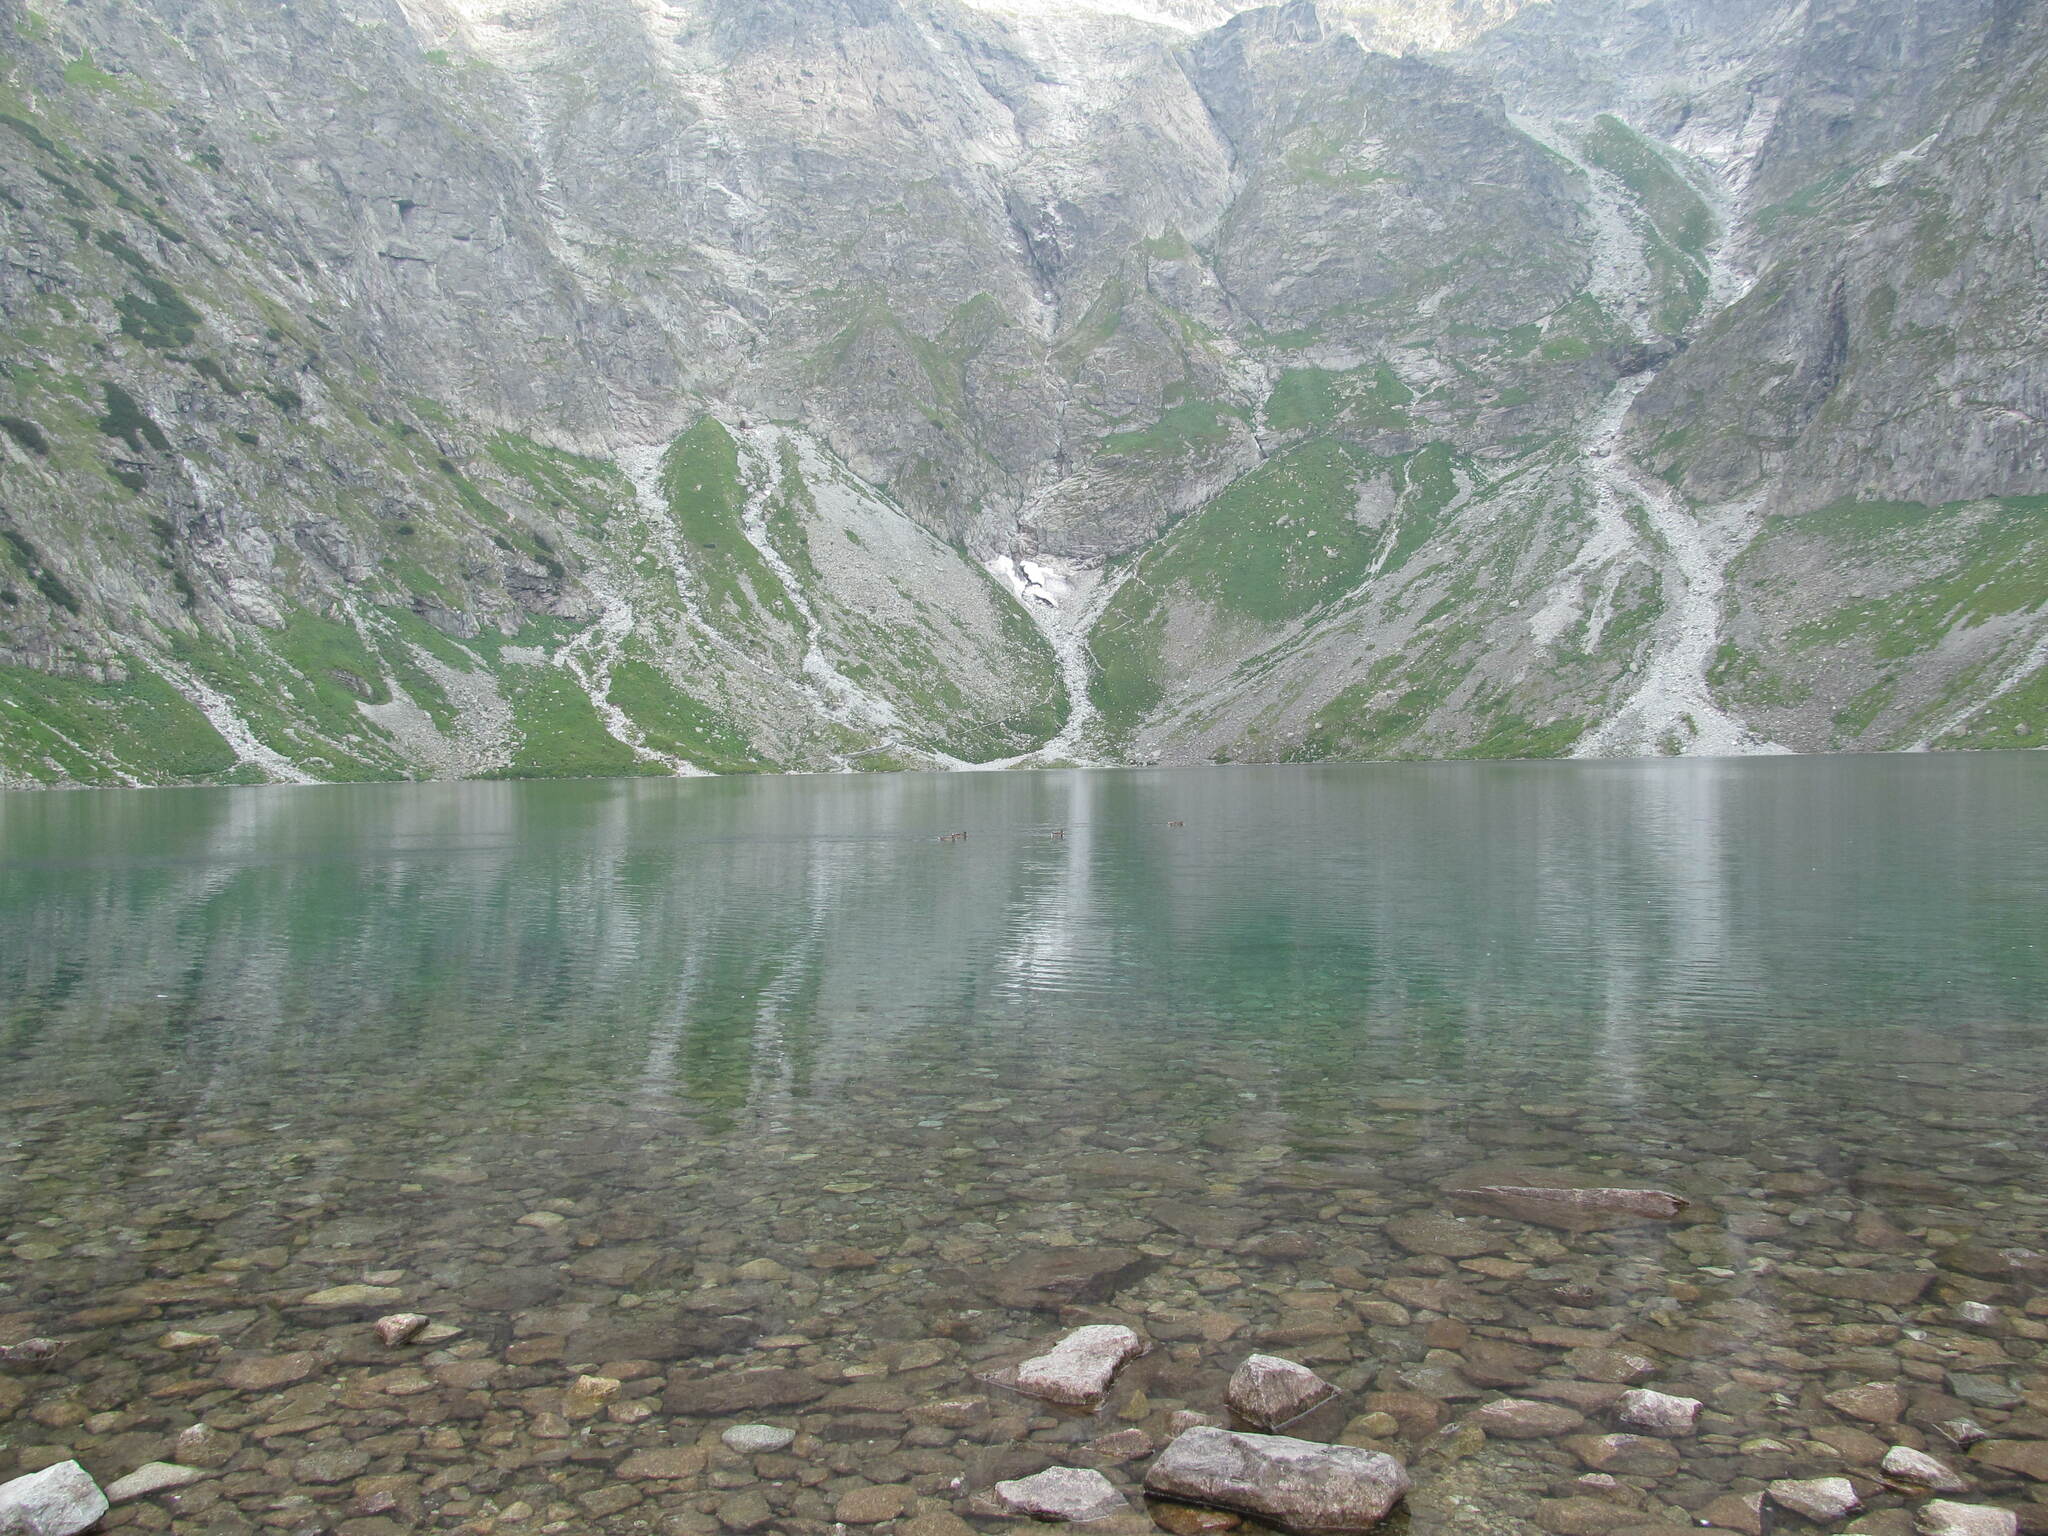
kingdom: Animalia
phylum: Chordata
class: Aves
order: Anseriformes
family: Anatidae
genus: Anas
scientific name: Anas platyrhynchos
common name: Mallard
